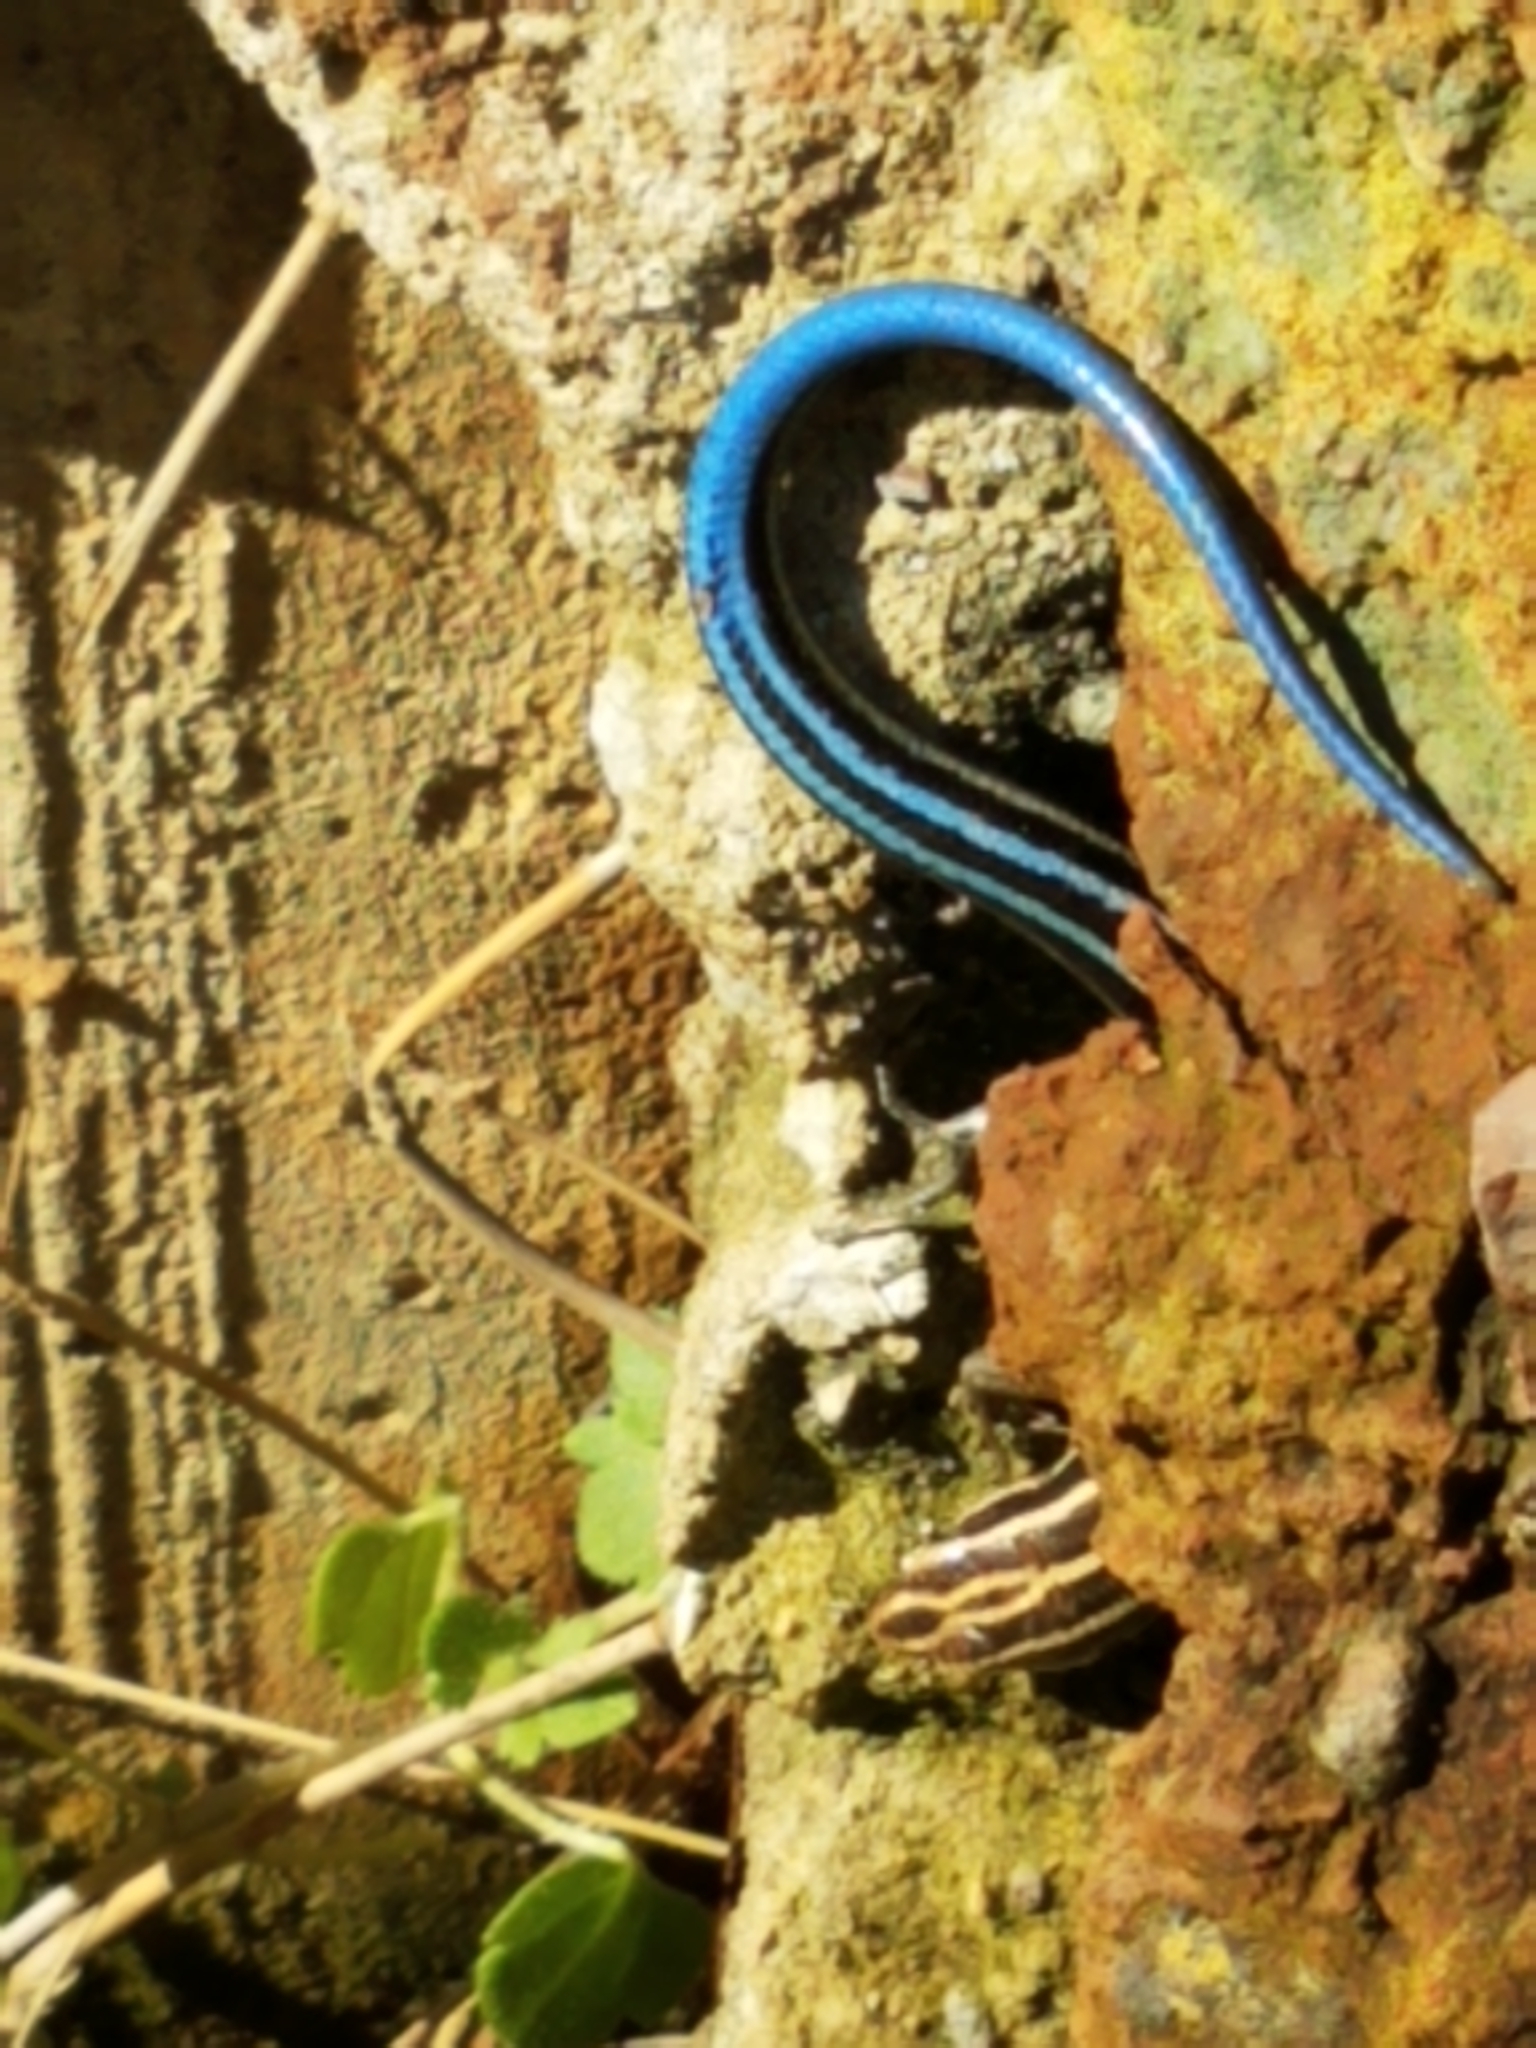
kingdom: Animalia
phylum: Chordata
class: Squamata
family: Scincidae
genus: Plestiodon
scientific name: Plestiodon fasciatus
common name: Five-lined skink
